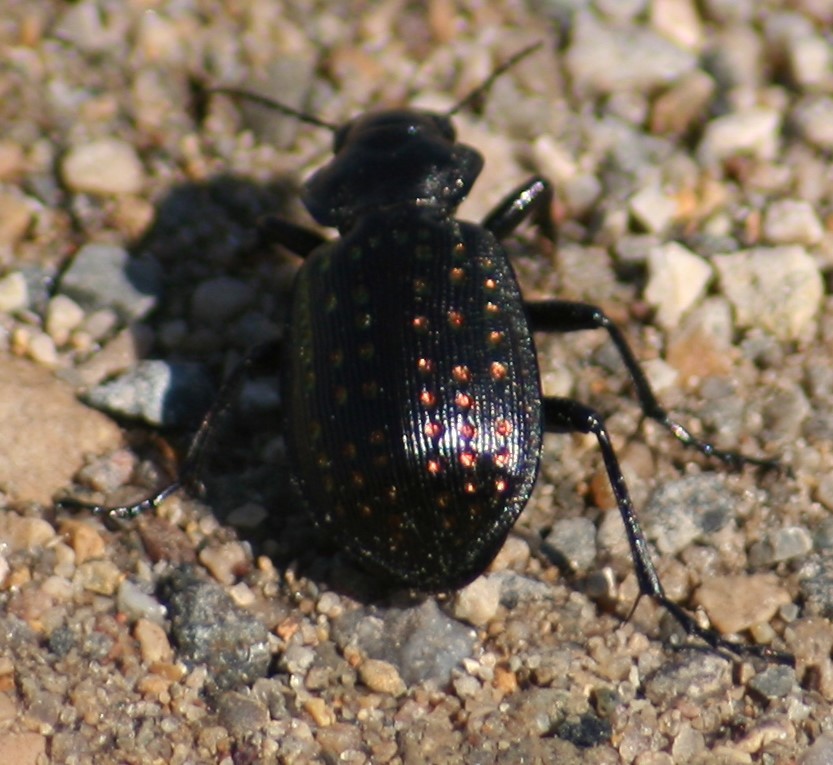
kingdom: Animalia
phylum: Arthropoda
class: Insecta
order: Coleoptera
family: Carabidae
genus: Calosoma
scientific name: Calosoma calidum
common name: Fiery hunter
